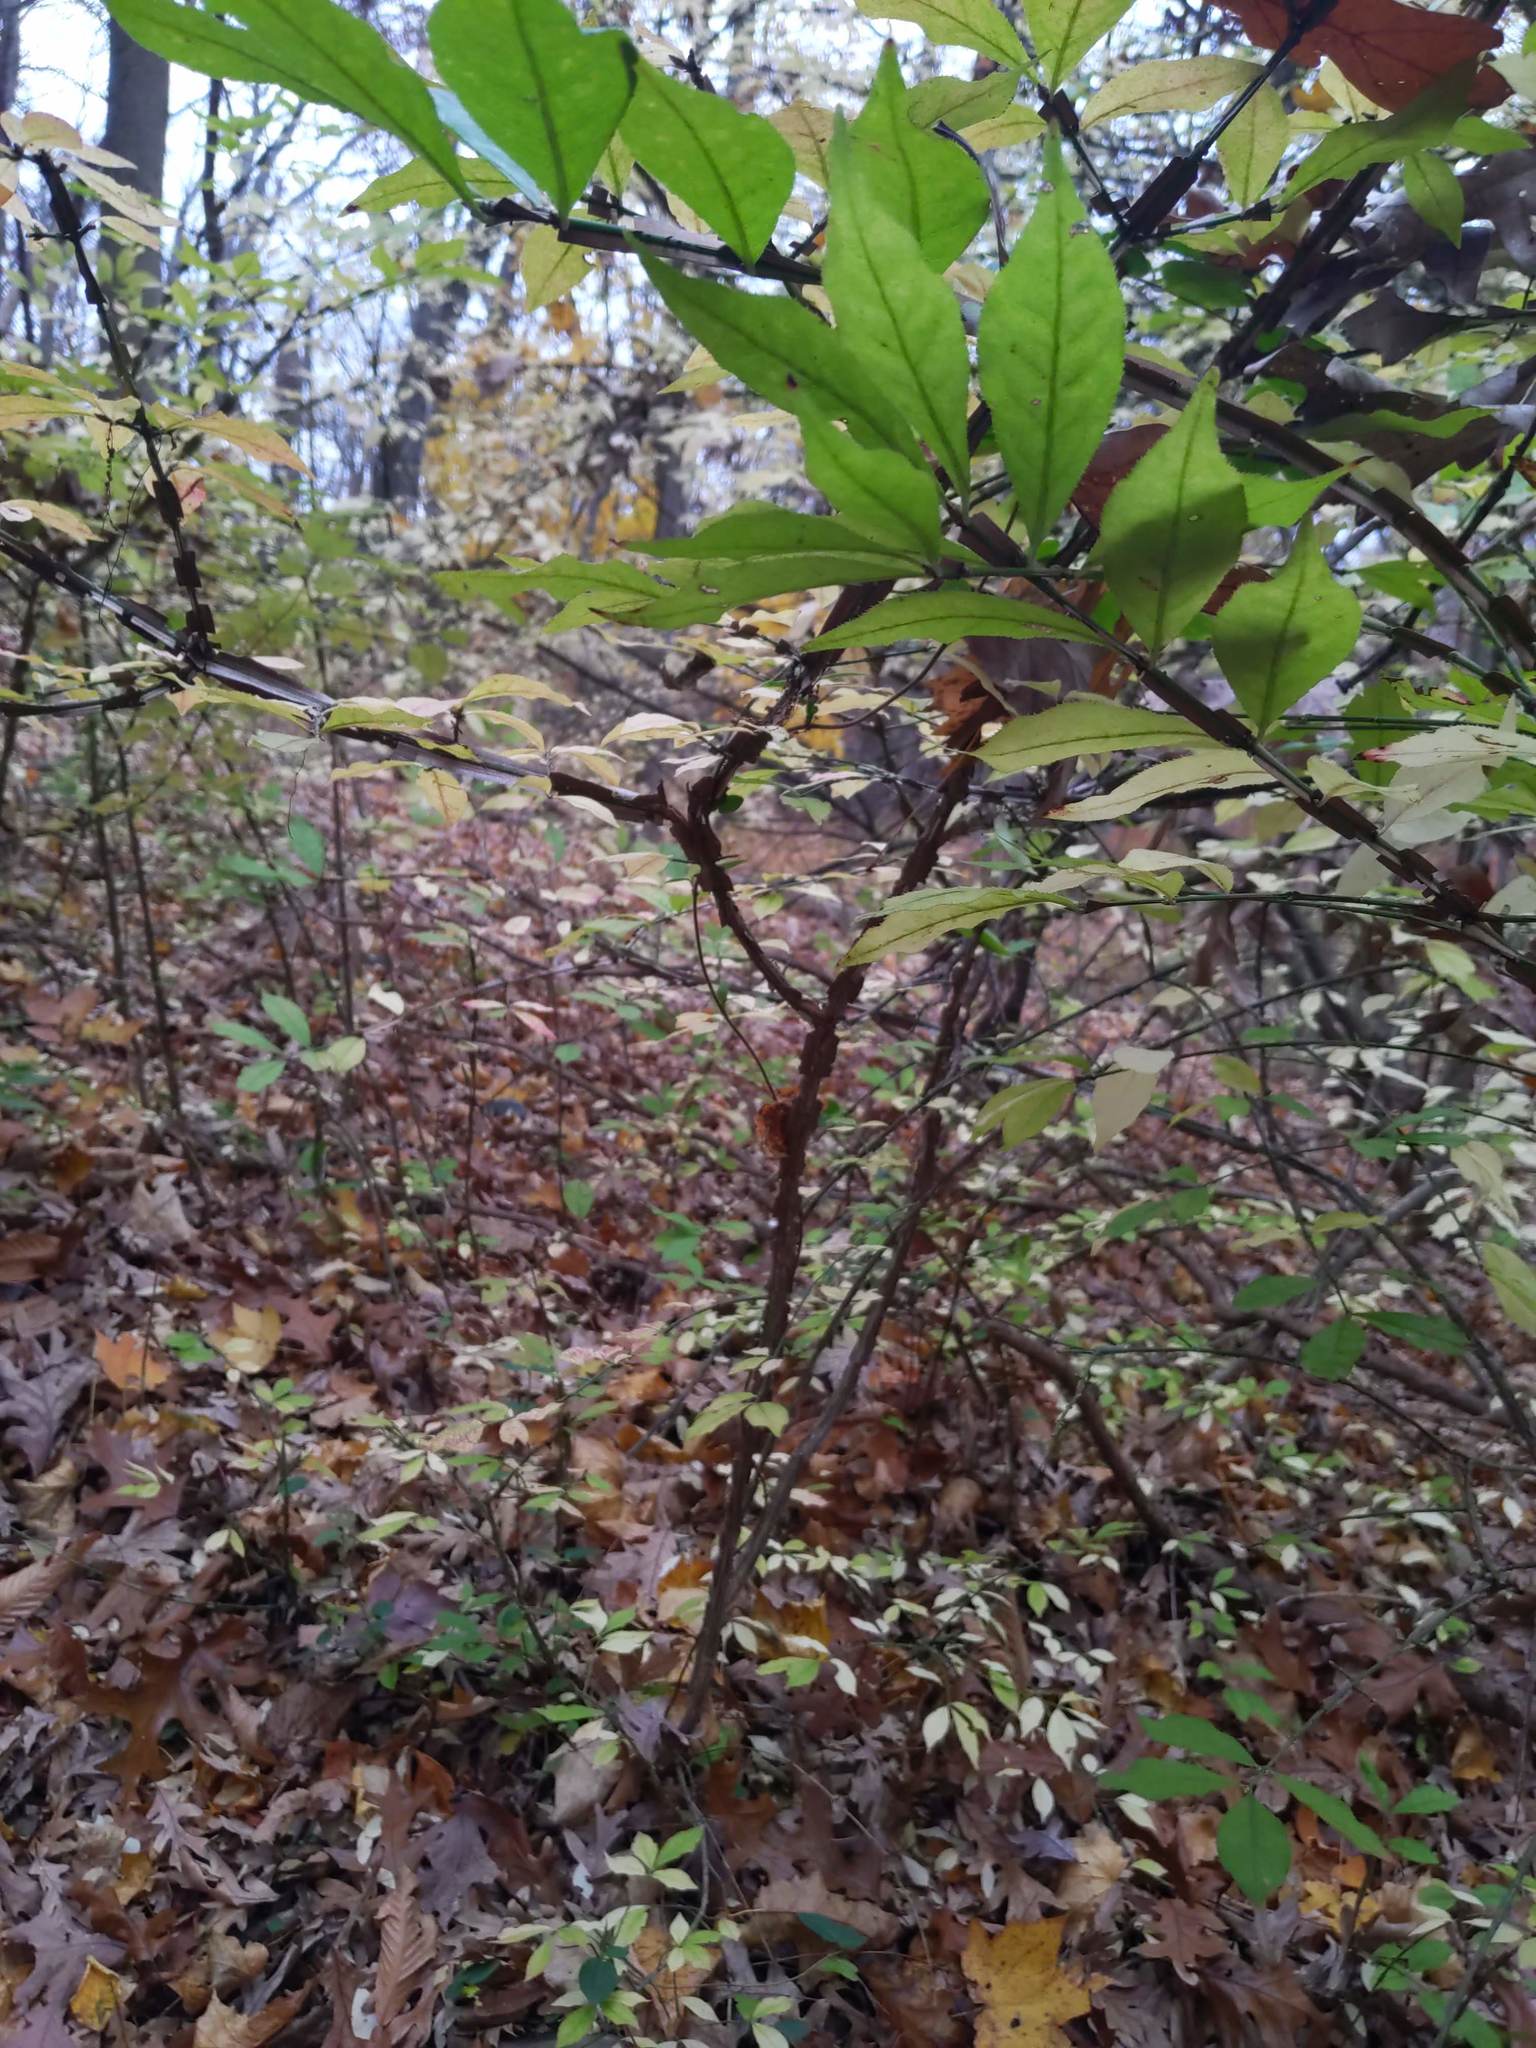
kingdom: Plantae
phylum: Tracheophyta
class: Magnoliopsida
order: Celastrales
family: Celastraceae
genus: Euonymus
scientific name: Euonymus alatus
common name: Winged euonymus
